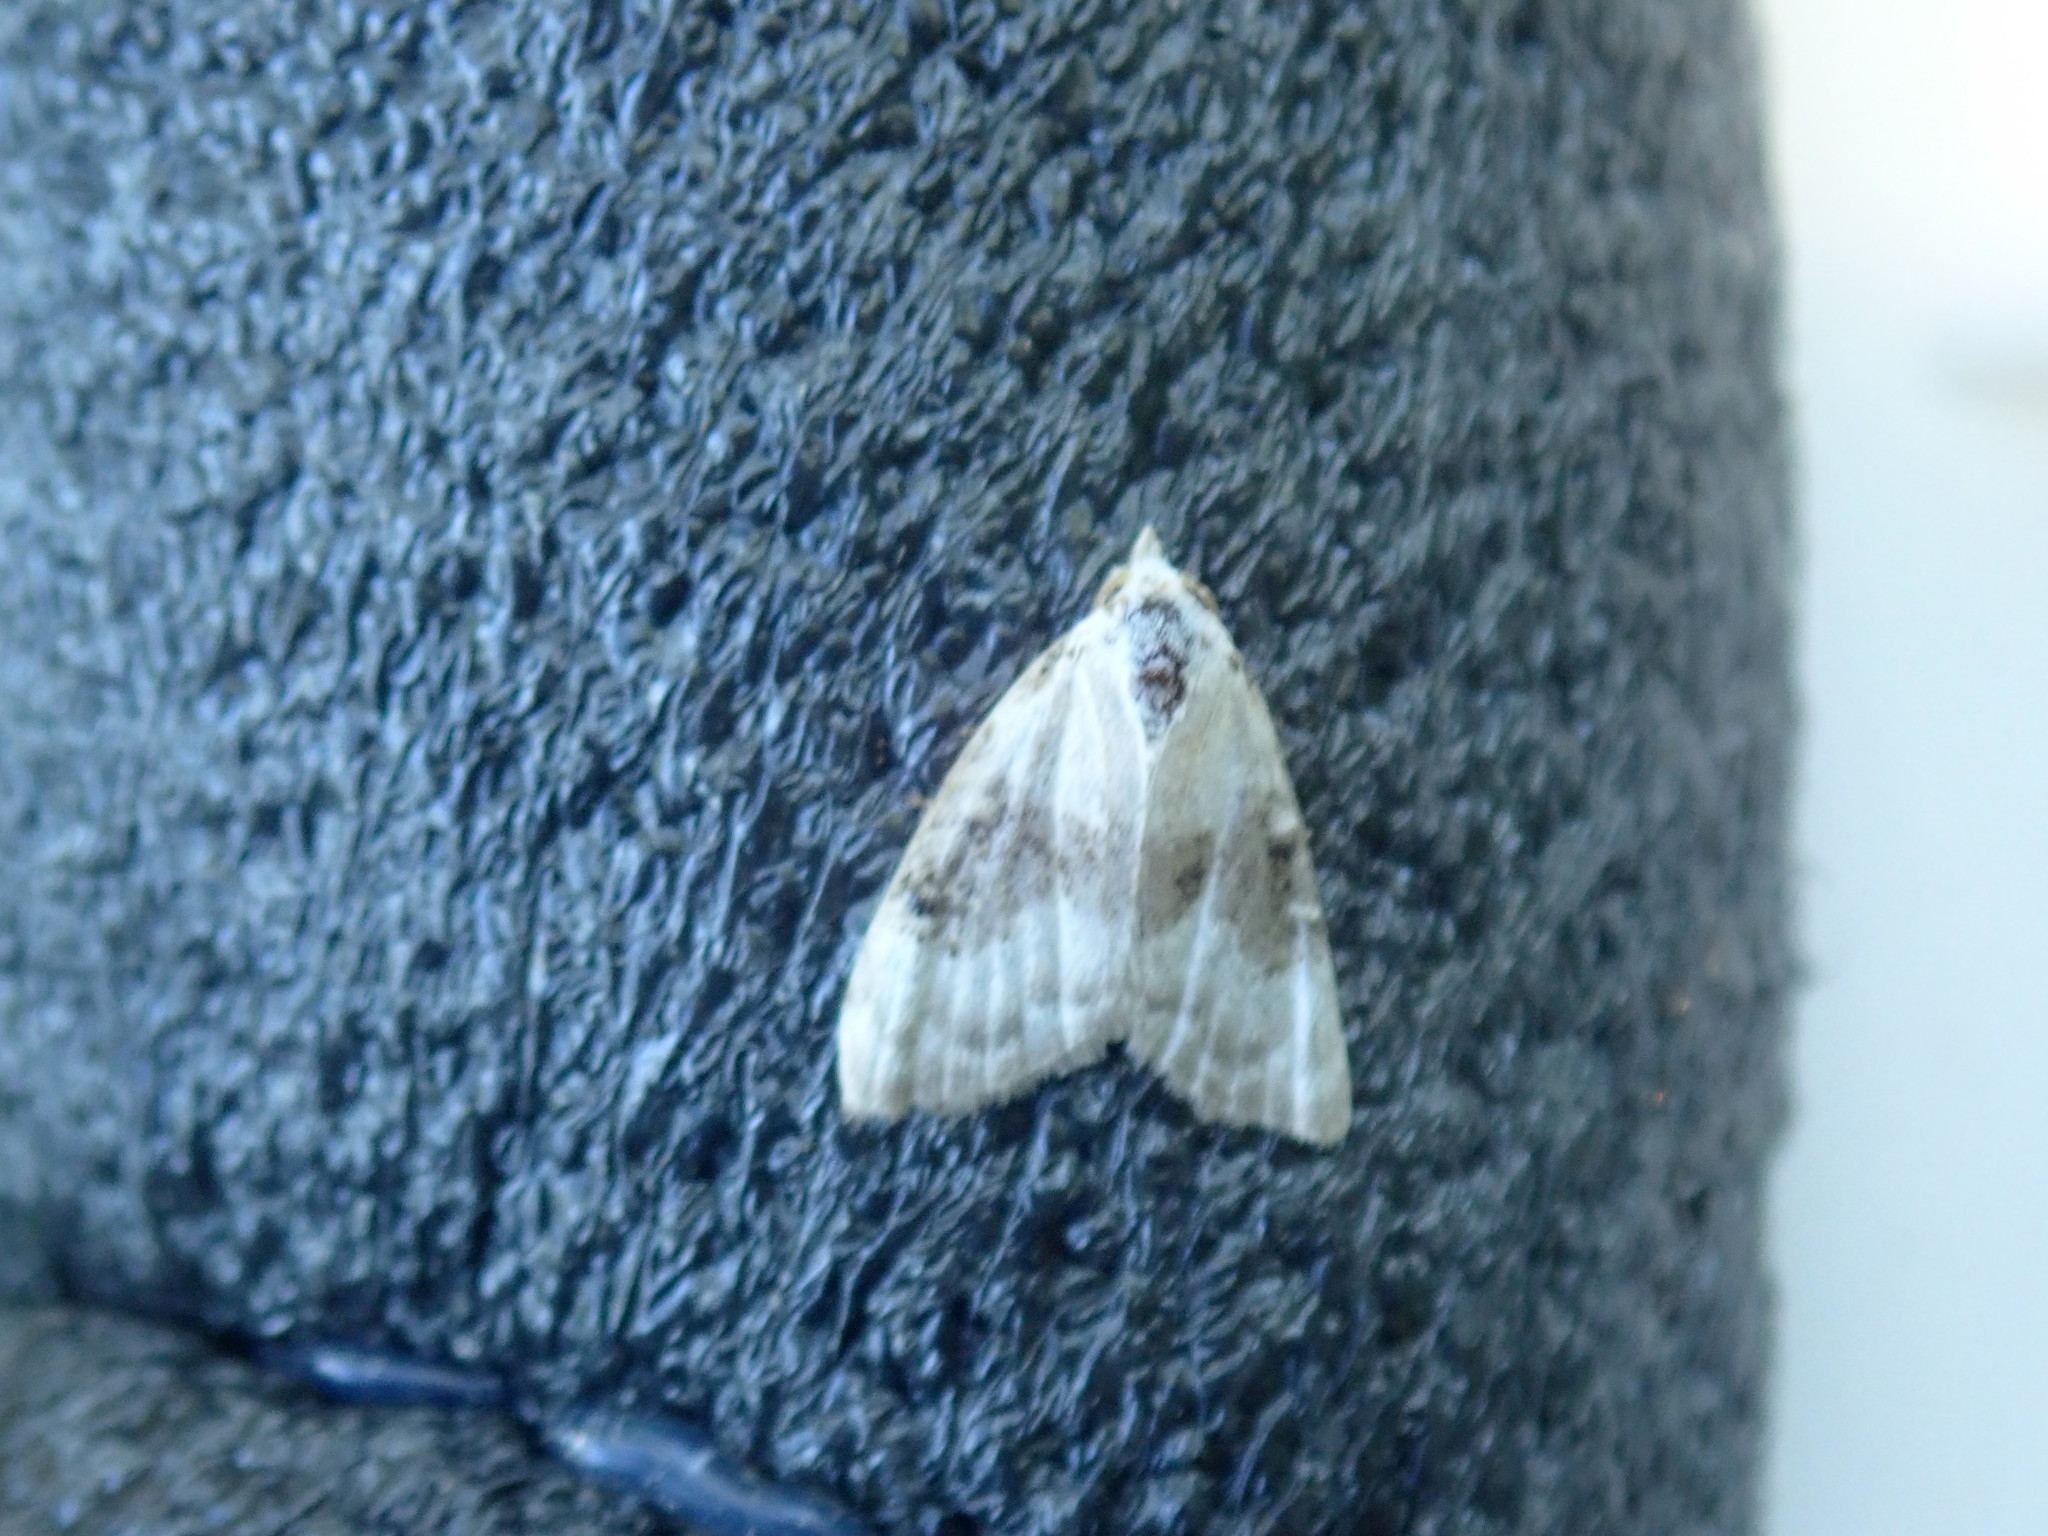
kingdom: Animalia
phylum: Arthropoda
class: Insecta
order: Lepidoptera
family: Nolidae
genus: Nola
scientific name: Nola pustulata
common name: Sharp-blotched nola moth
